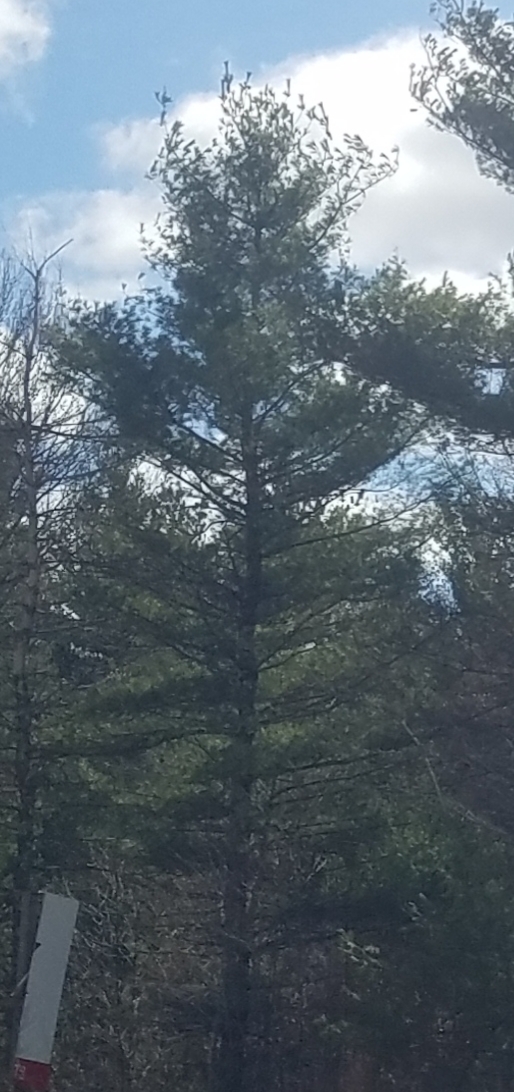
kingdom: Plantae
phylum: Tracheophyta
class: Pinopsida
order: Pinales
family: Pinaceae
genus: Pinus
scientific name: Pinus strobus
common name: Weymouth pine
